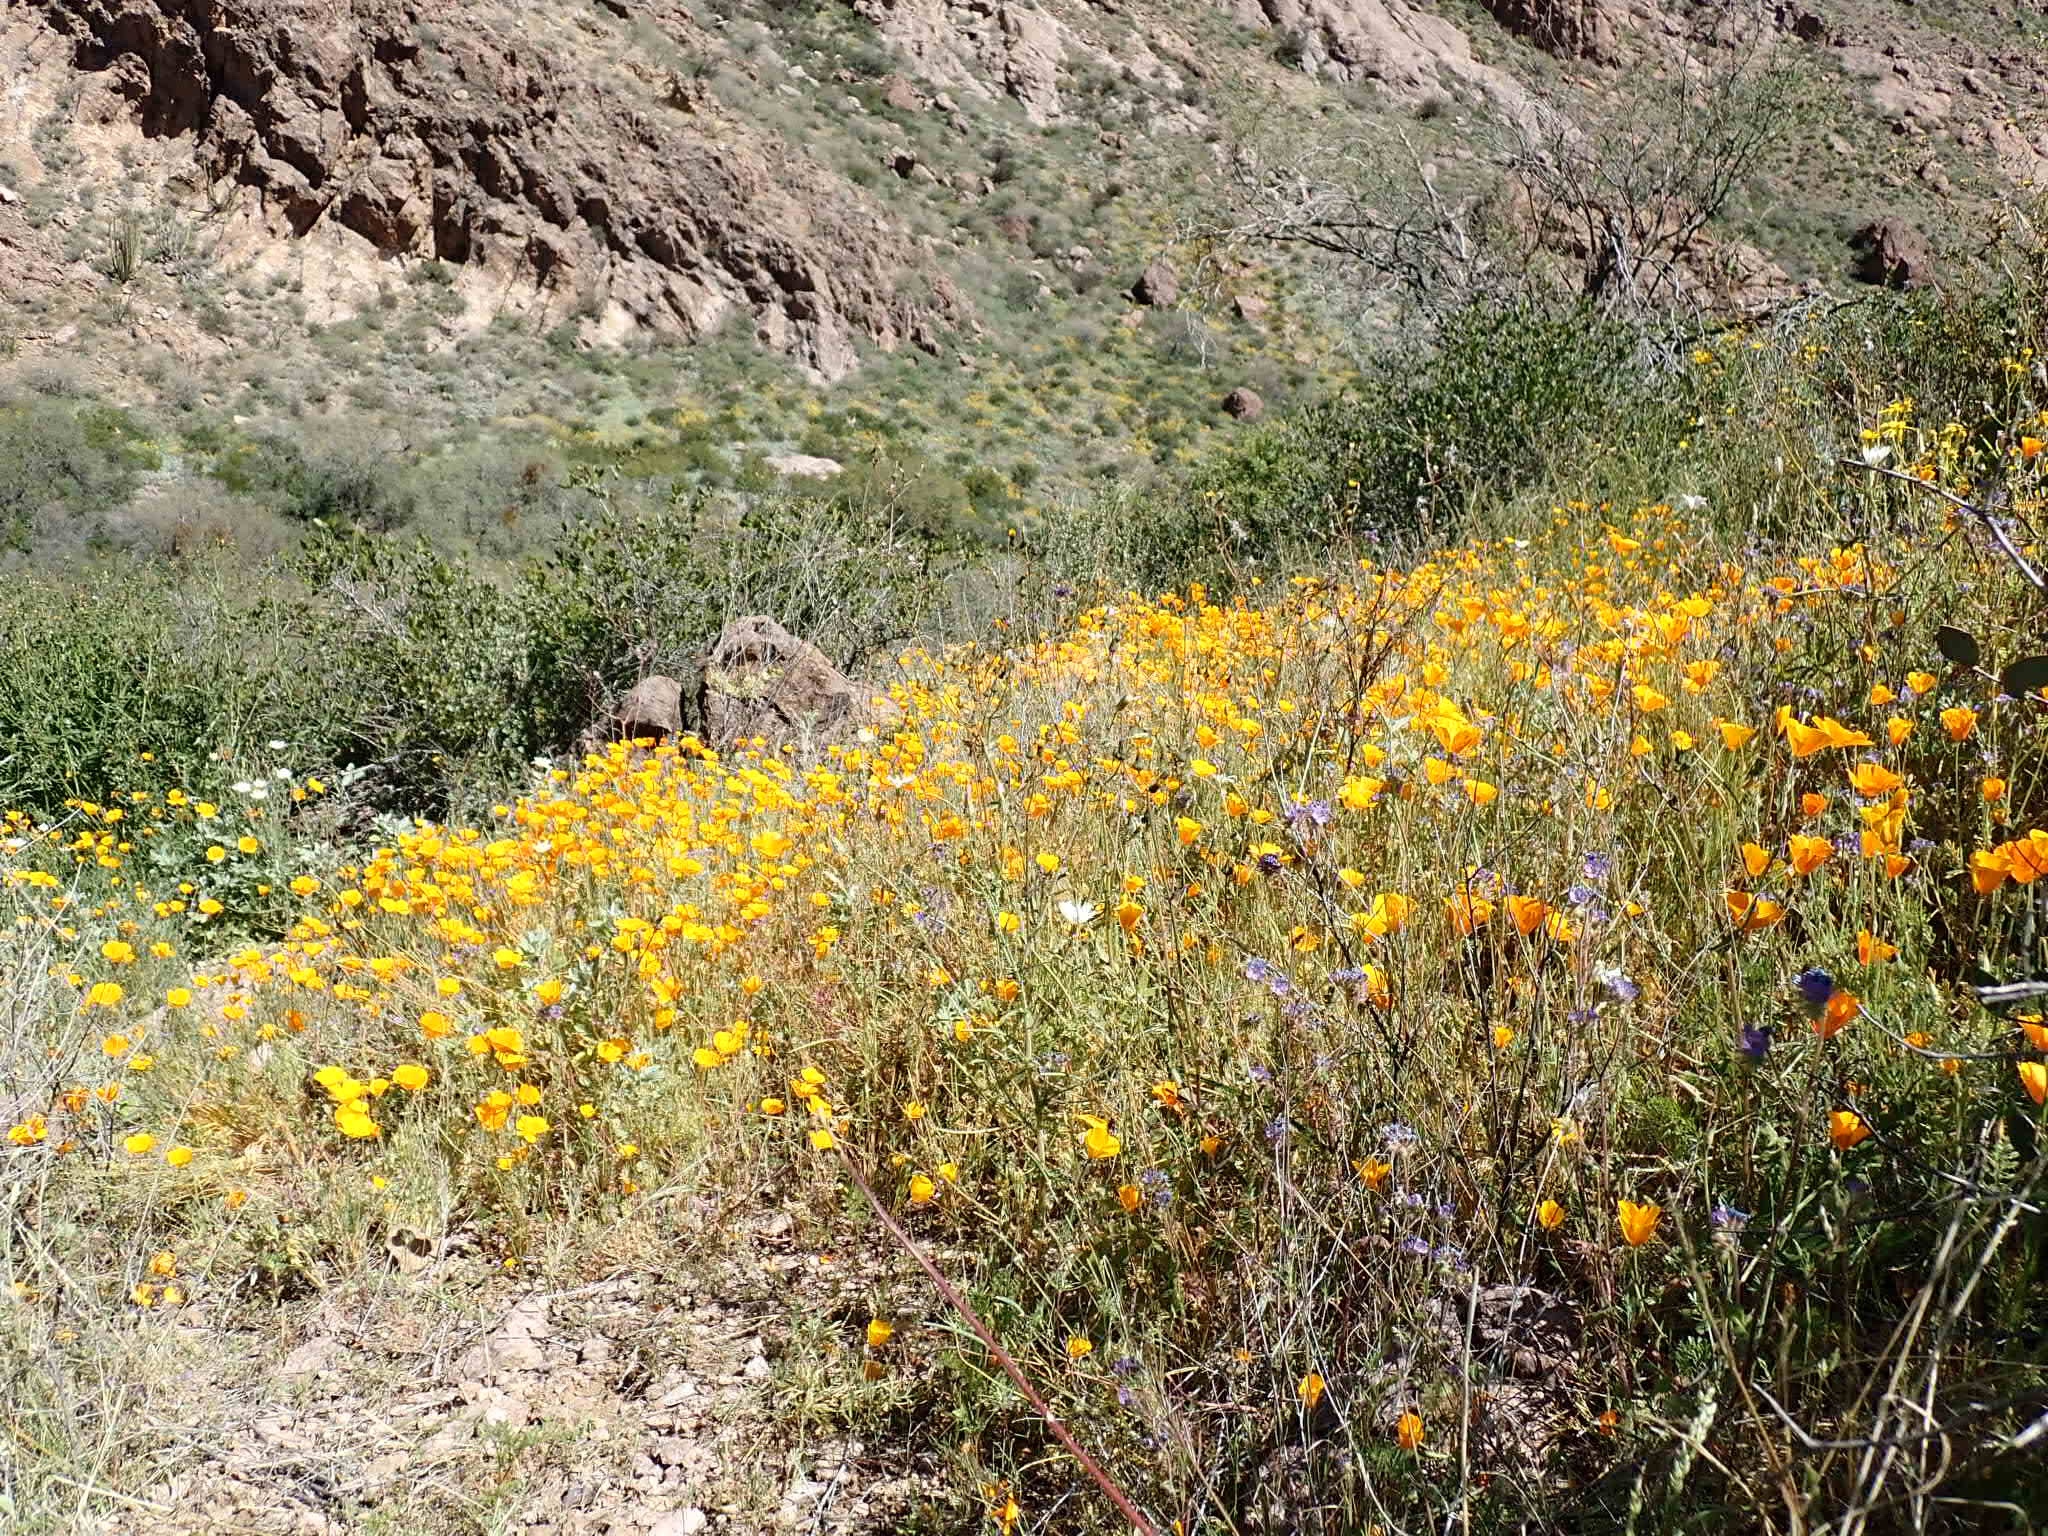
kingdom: Plantae
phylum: Tracheophyta
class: Magnoliopsida
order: Ranunculales
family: Papaveraceae
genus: Eschscholzia
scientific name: Eschscholzia californica
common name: California poppy
